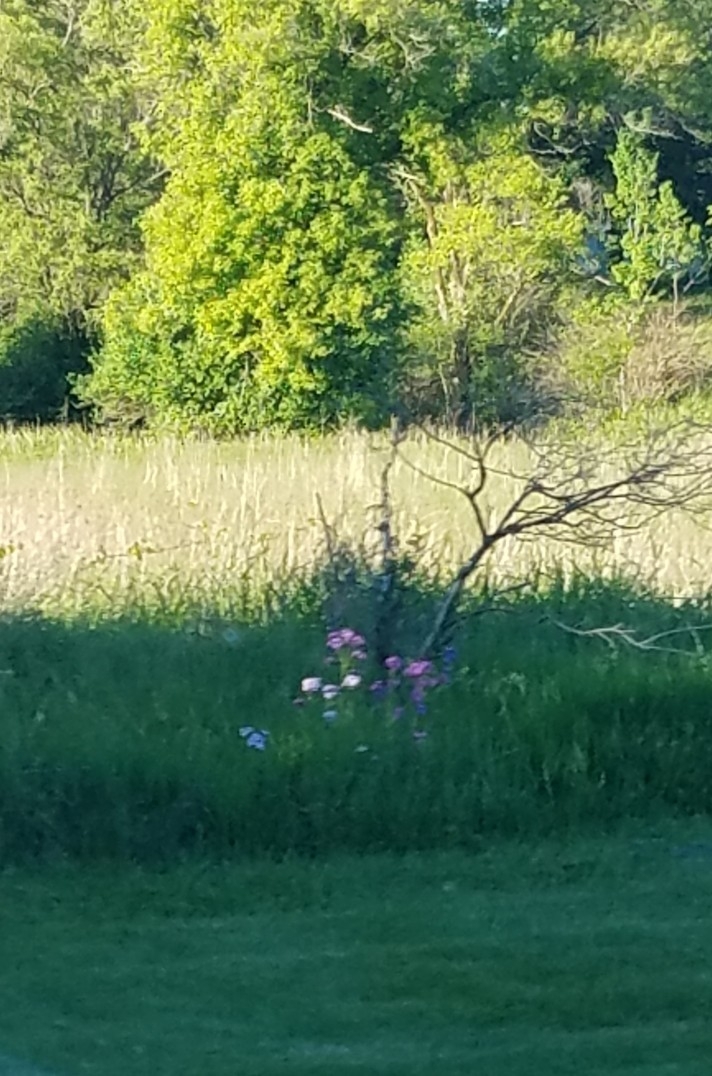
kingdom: Plantae
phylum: Tracheophyta
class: Magnoliopsida
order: Brassicales
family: Brassicaceae
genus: Hesperis
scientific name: Hesperis matronalis
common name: Dame's-violet
